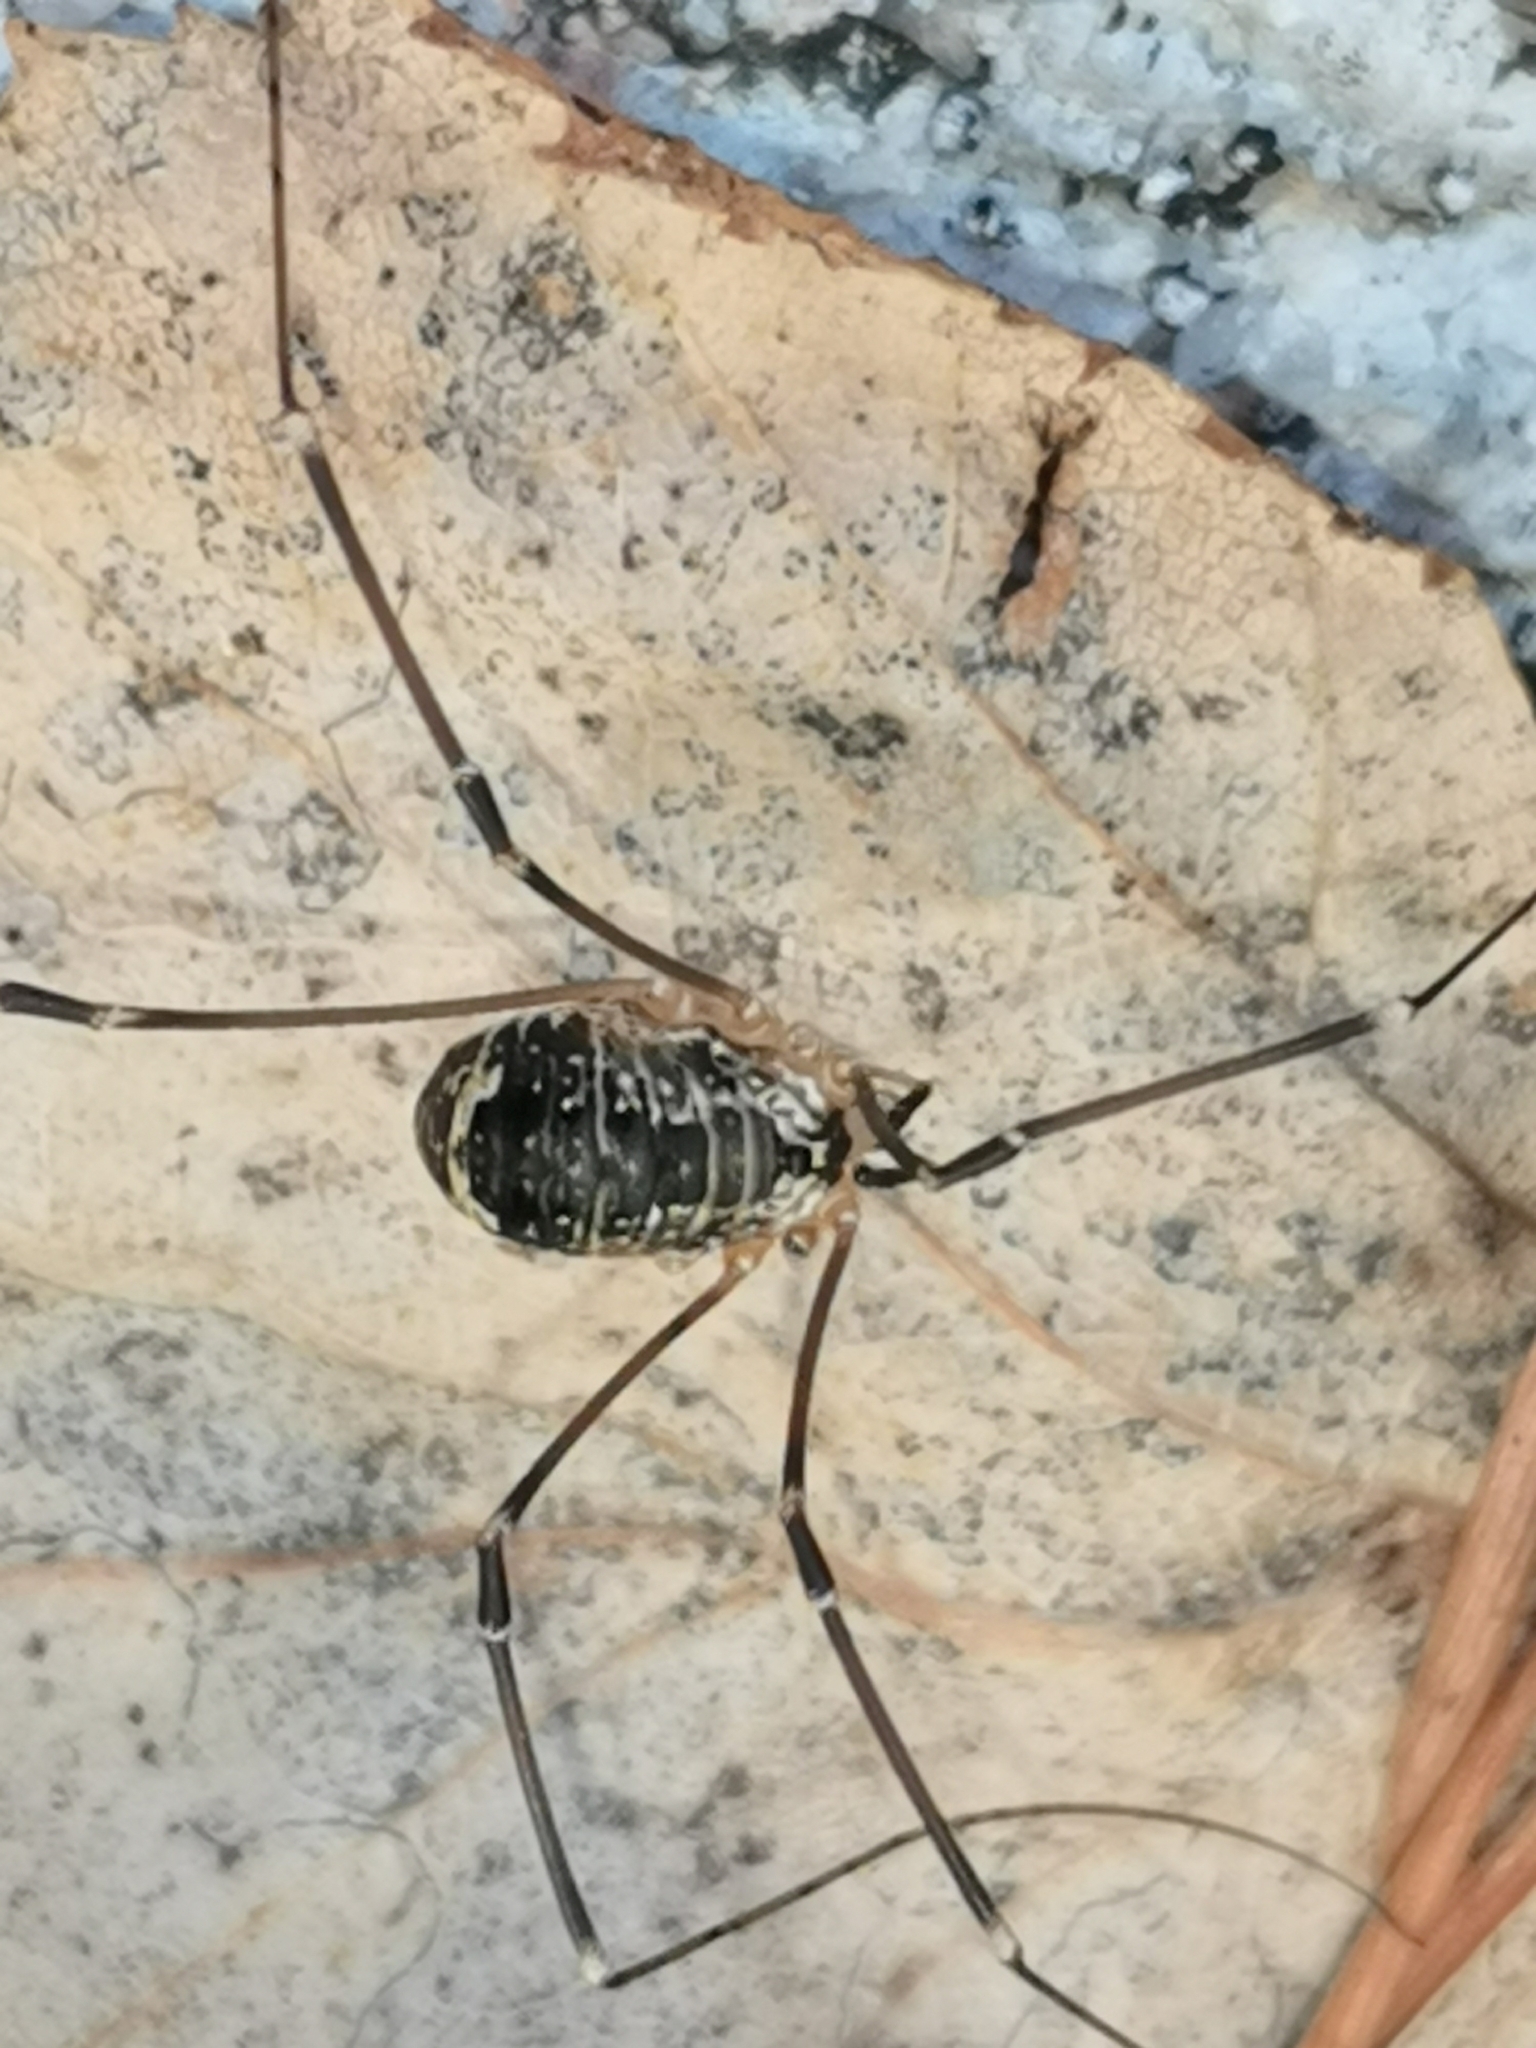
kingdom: Animalia
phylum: Arthropoda
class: Arachnida
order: Opiliones
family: Sclerosomatidae
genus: Leiobunum
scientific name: Leiobunum gracile
